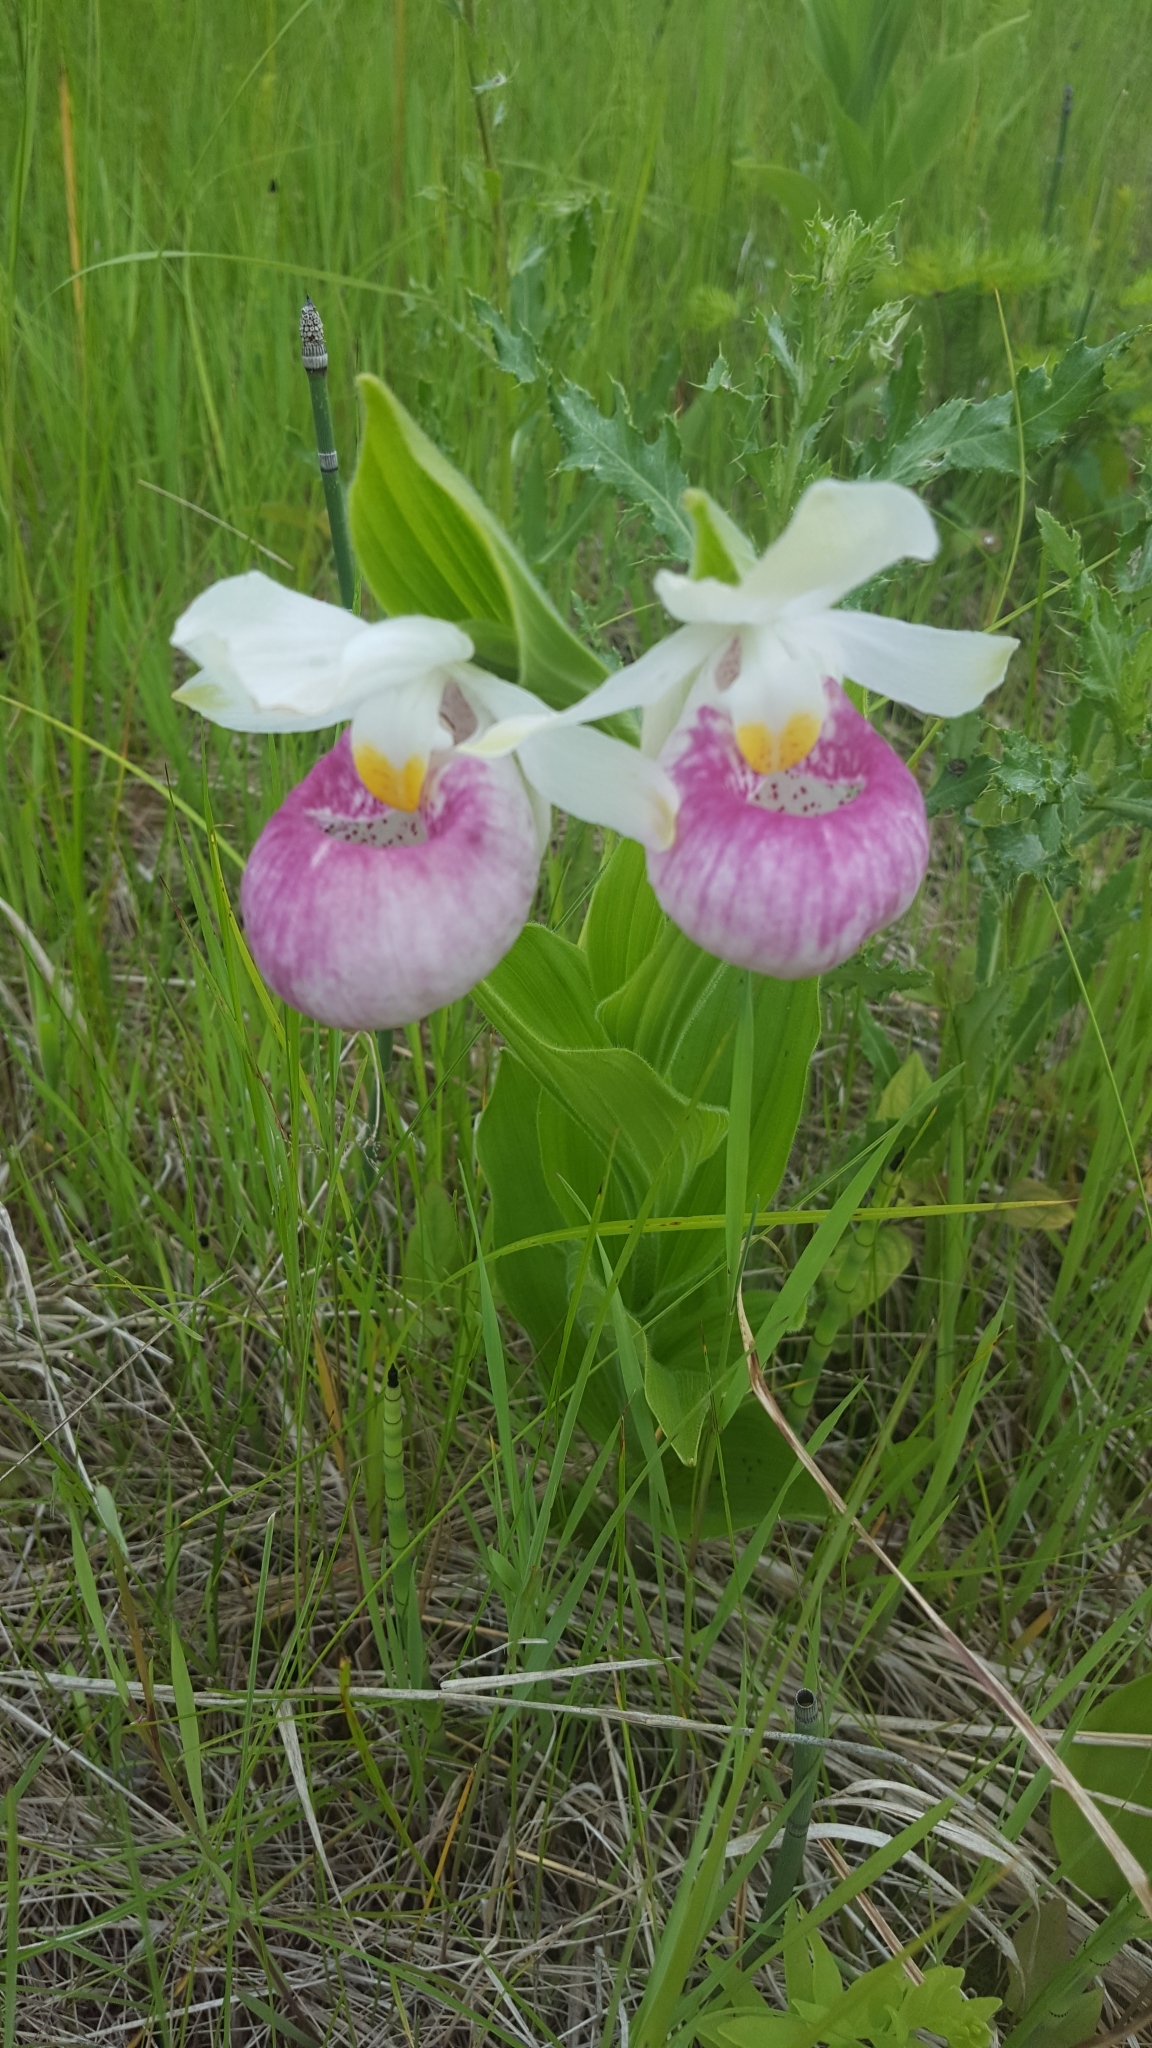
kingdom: Plantae
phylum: Tracheophyta
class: Liliopsida
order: Asparagales
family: Orchidaceae
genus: Cypripedium
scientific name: Cypripedium reginae
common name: Queen lady's-slipper
